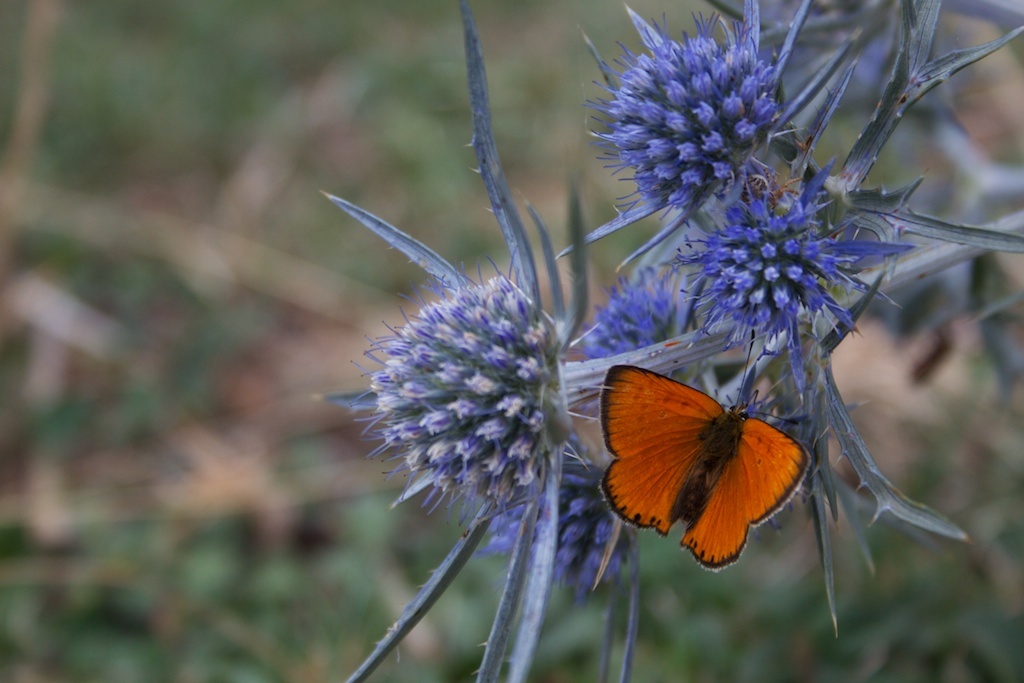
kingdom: Animalia
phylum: Arthropoda
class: Insecta
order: Lepidoptera
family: Lycaenidae
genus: Lycaena
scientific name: Lycaena virgaureae
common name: Scarce copper
